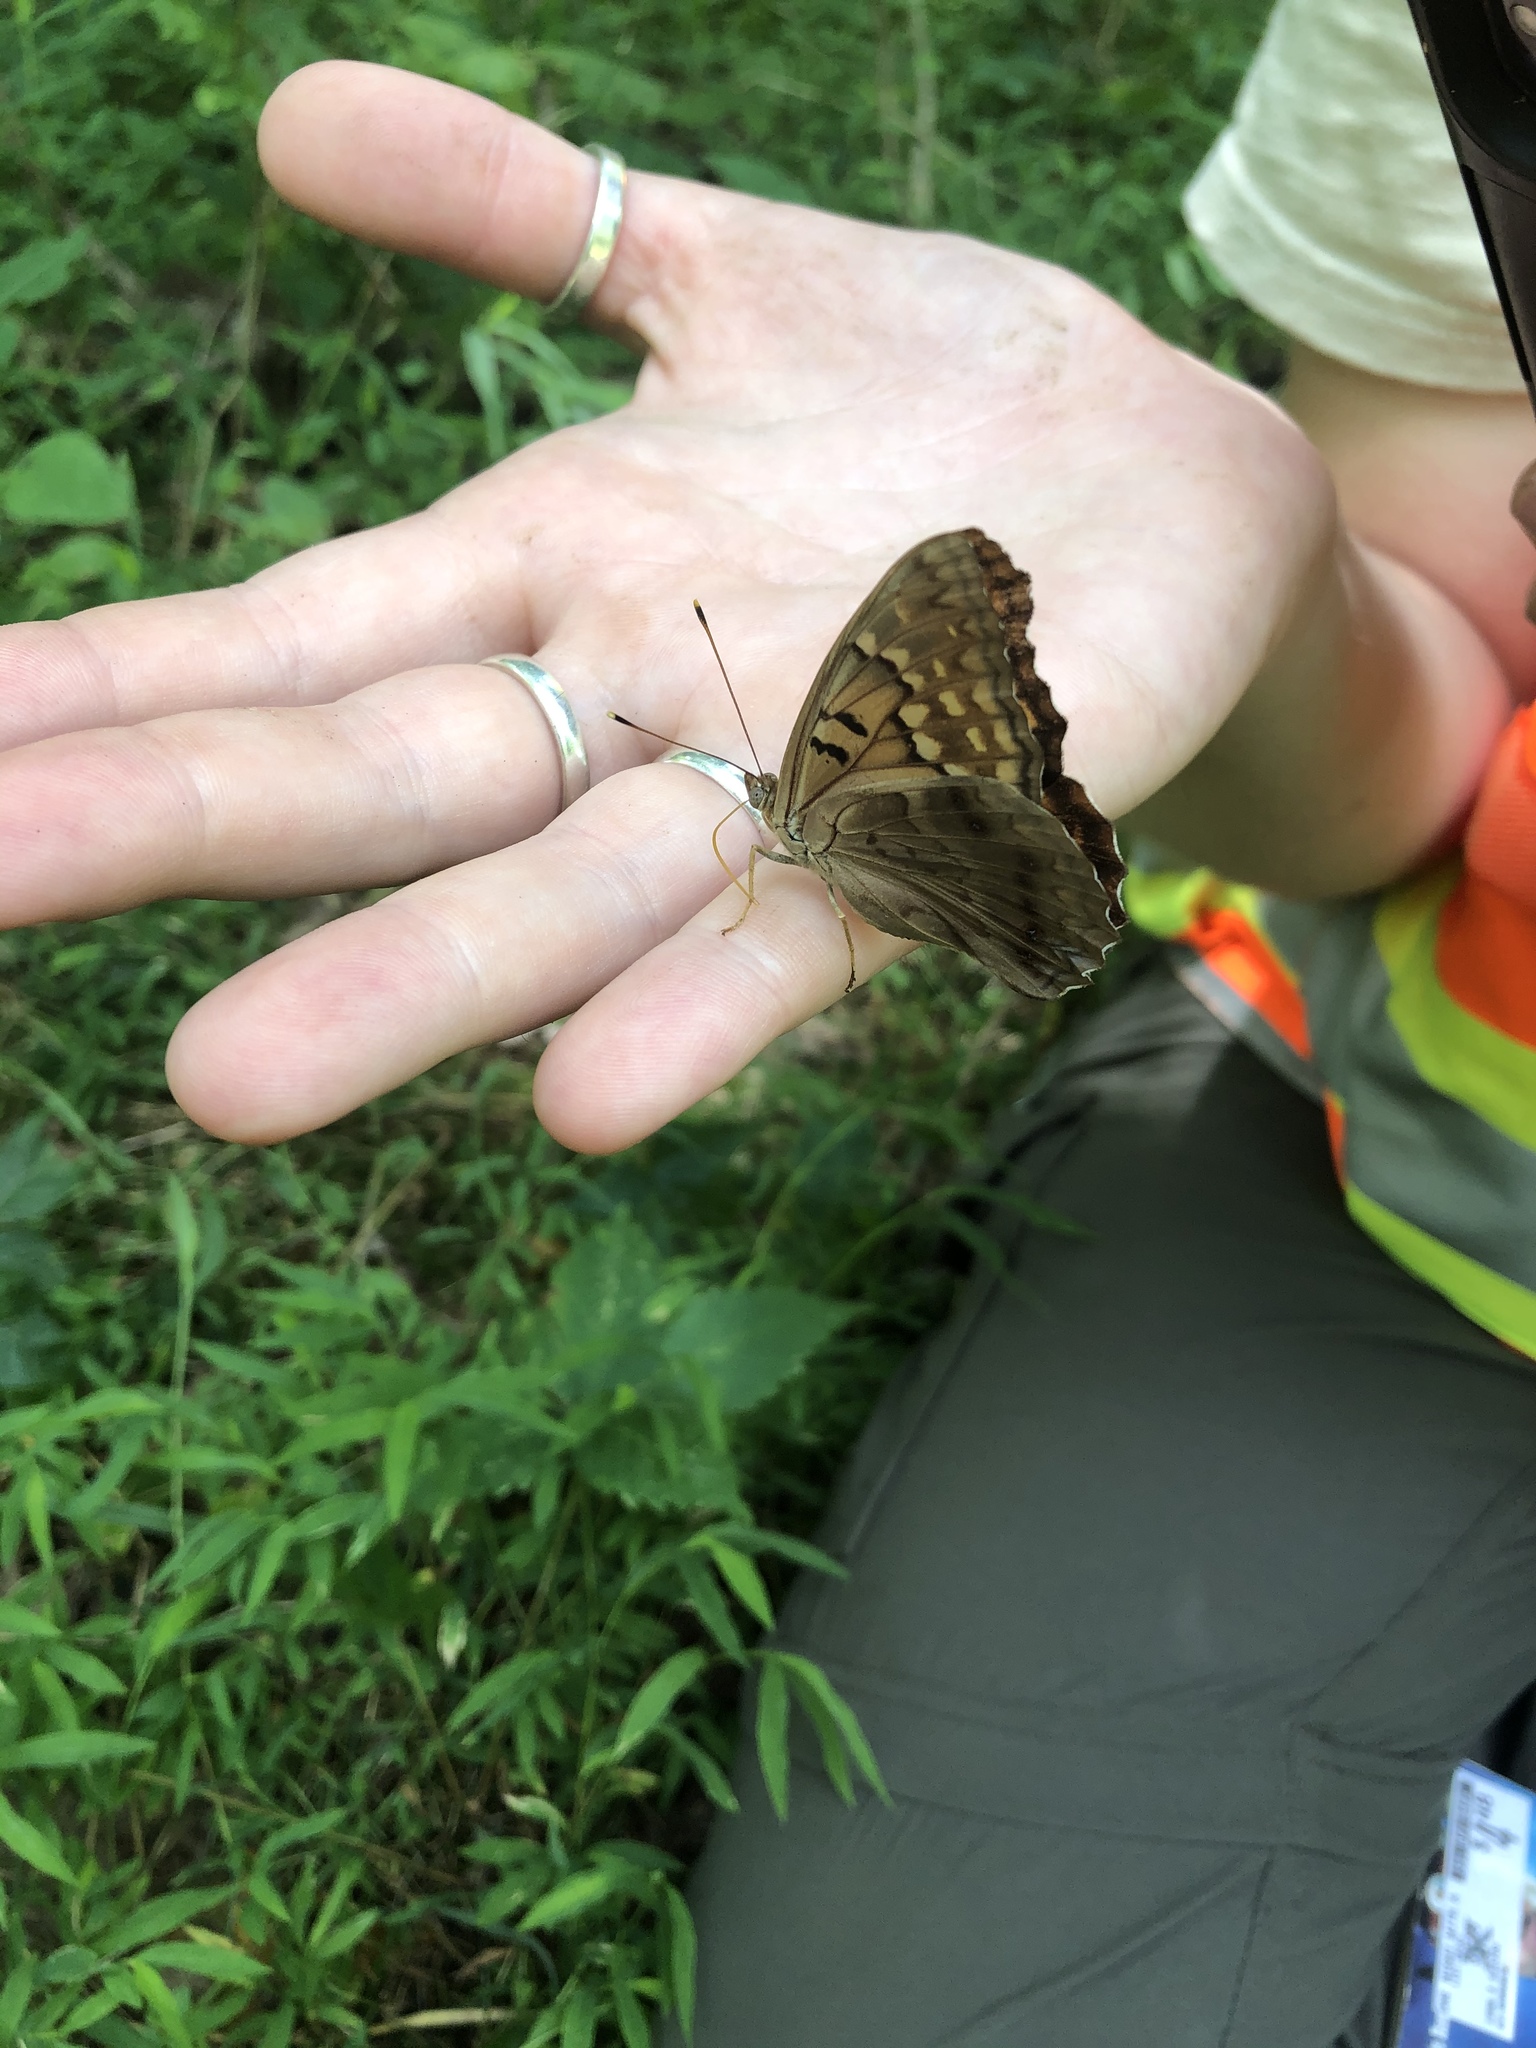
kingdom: Animalia
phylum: Arthropoda
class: Insecta
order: Lepidoptera
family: Nymphalidae
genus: Asterocampa
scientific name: Asterocampa clyton
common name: Tawny emperor
